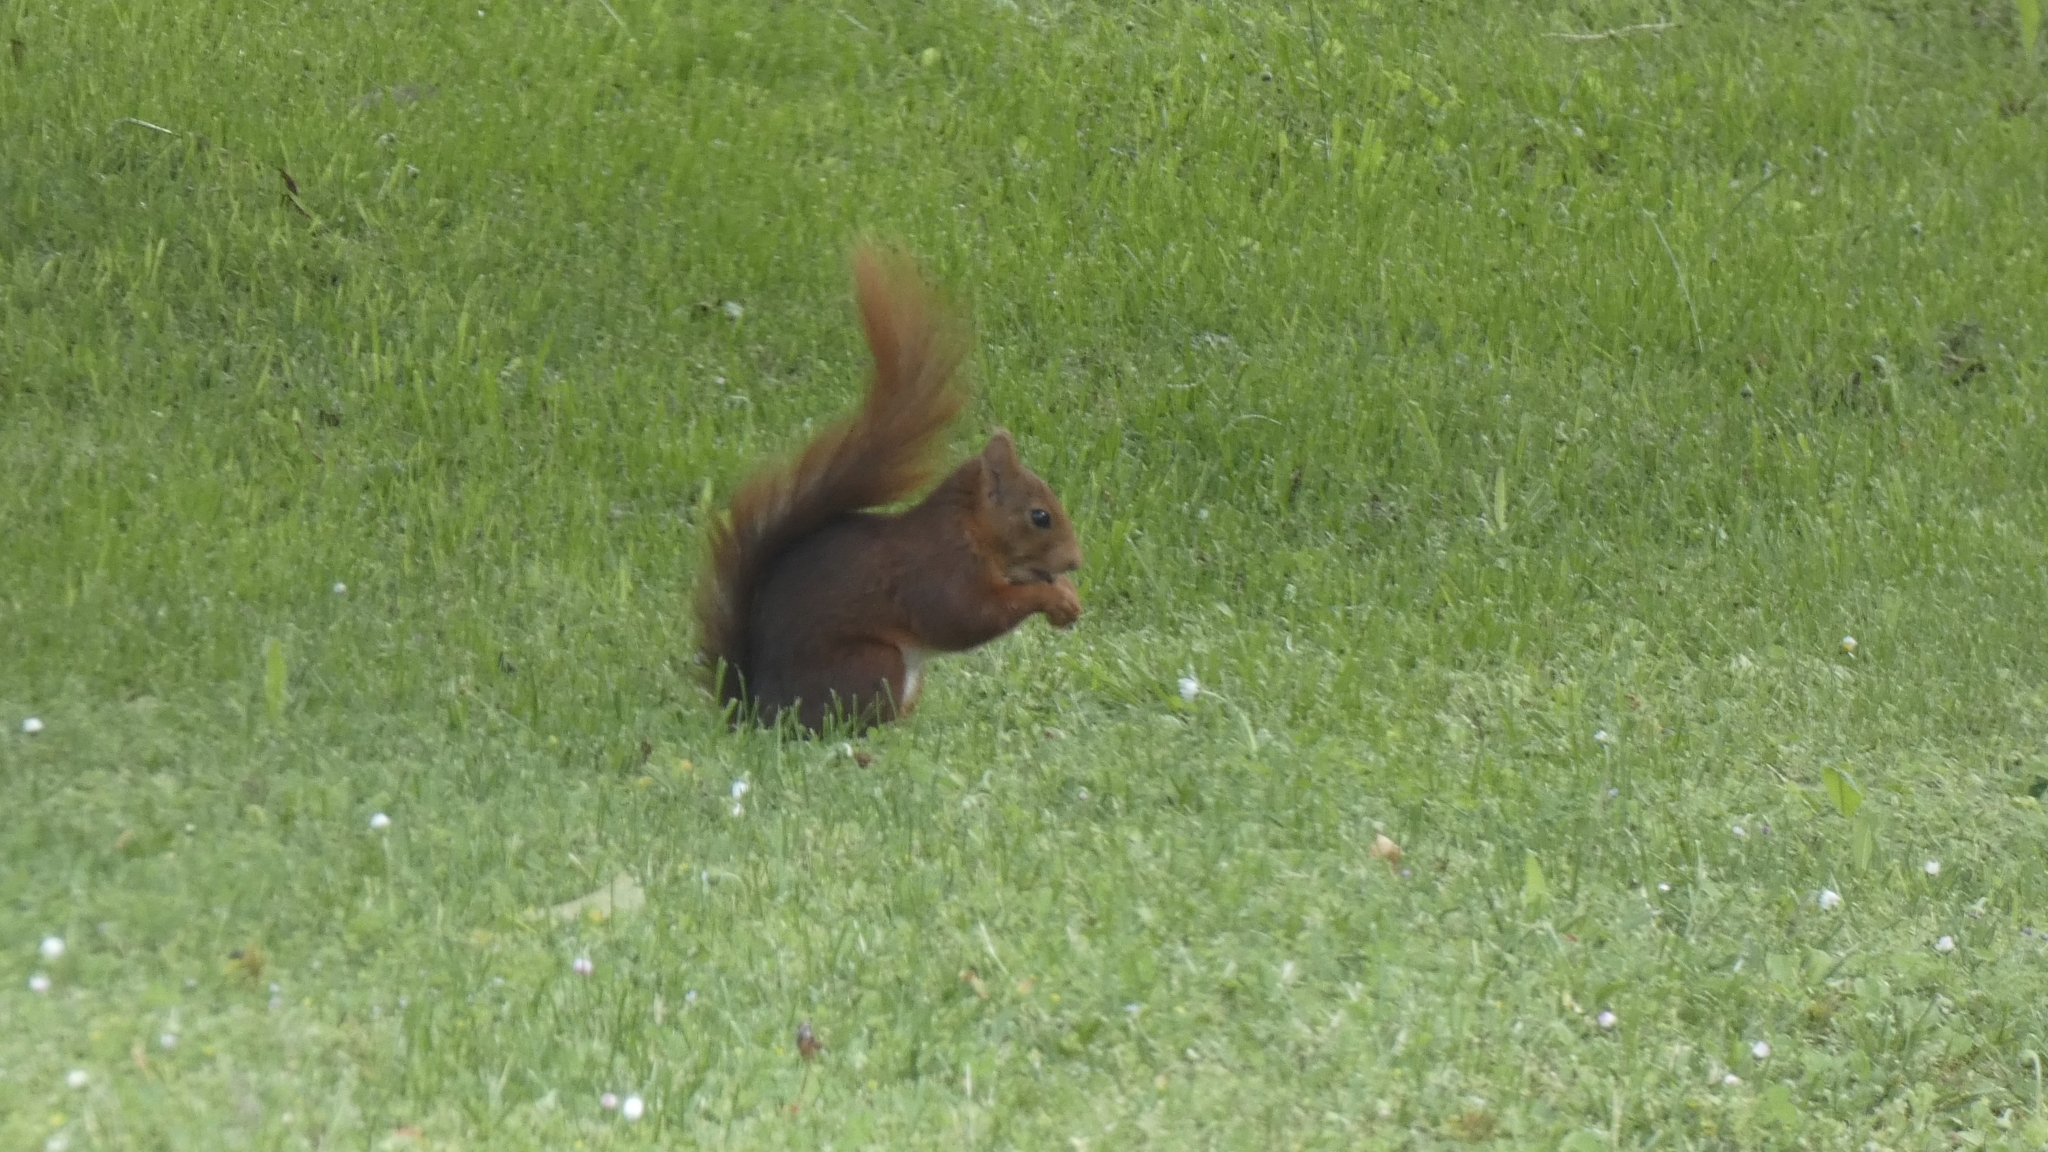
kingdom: Animalia
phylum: Chordata
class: Mammalia
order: Rodentia
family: Sciuridae
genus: Sciurus
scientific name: Sciurus vulgaris
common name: Eurasian red squirrel
